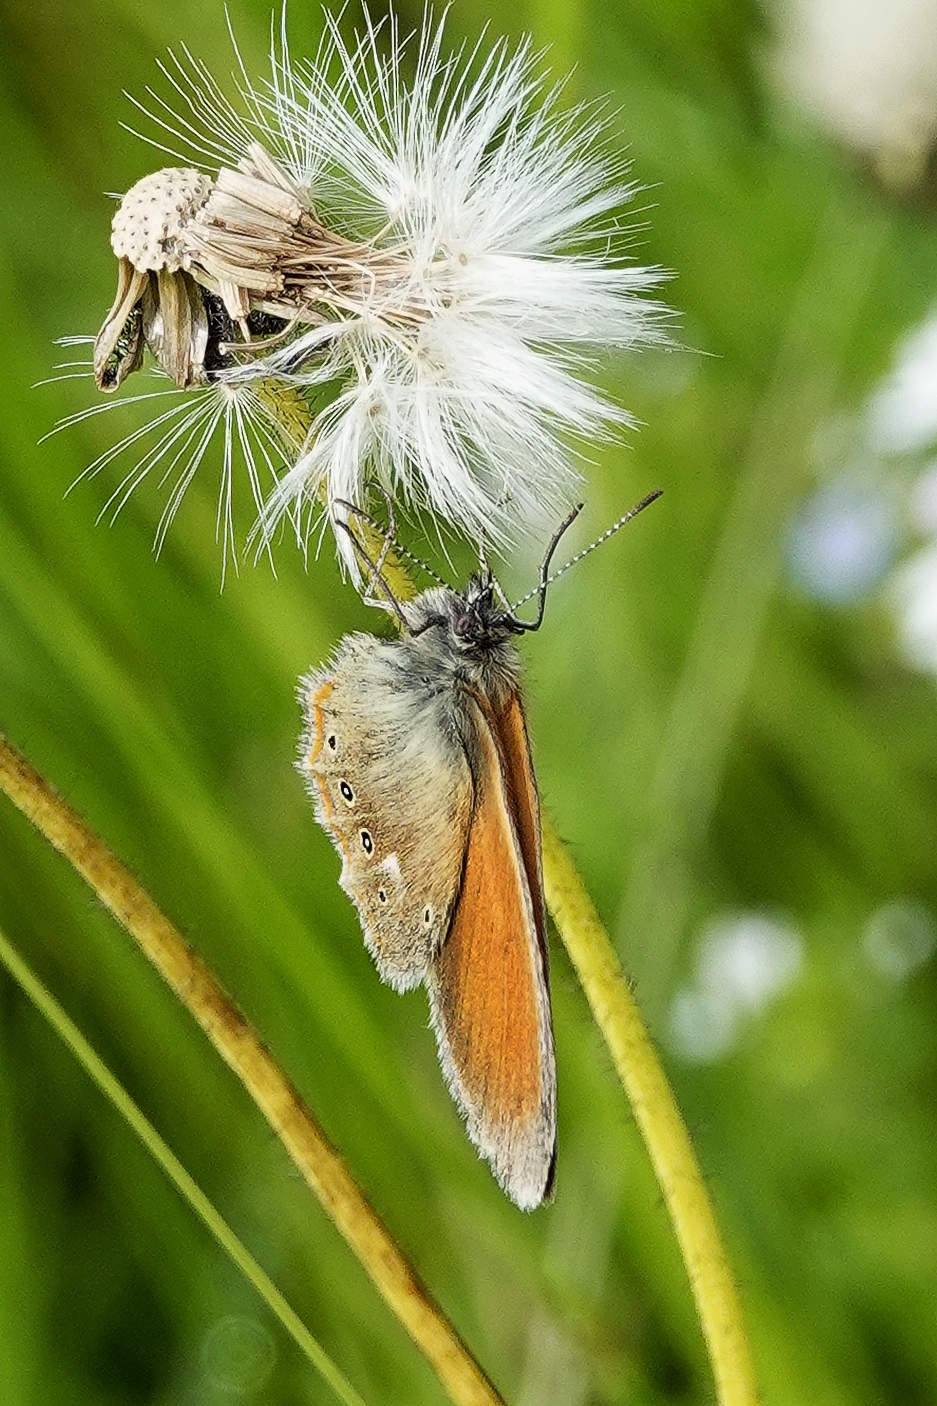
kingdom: Animalia
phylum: Arthropoda
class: Insecta
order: Lepidoptera
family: Nymphalidae
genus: Coenonympha
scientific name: Coenonympha iphis
